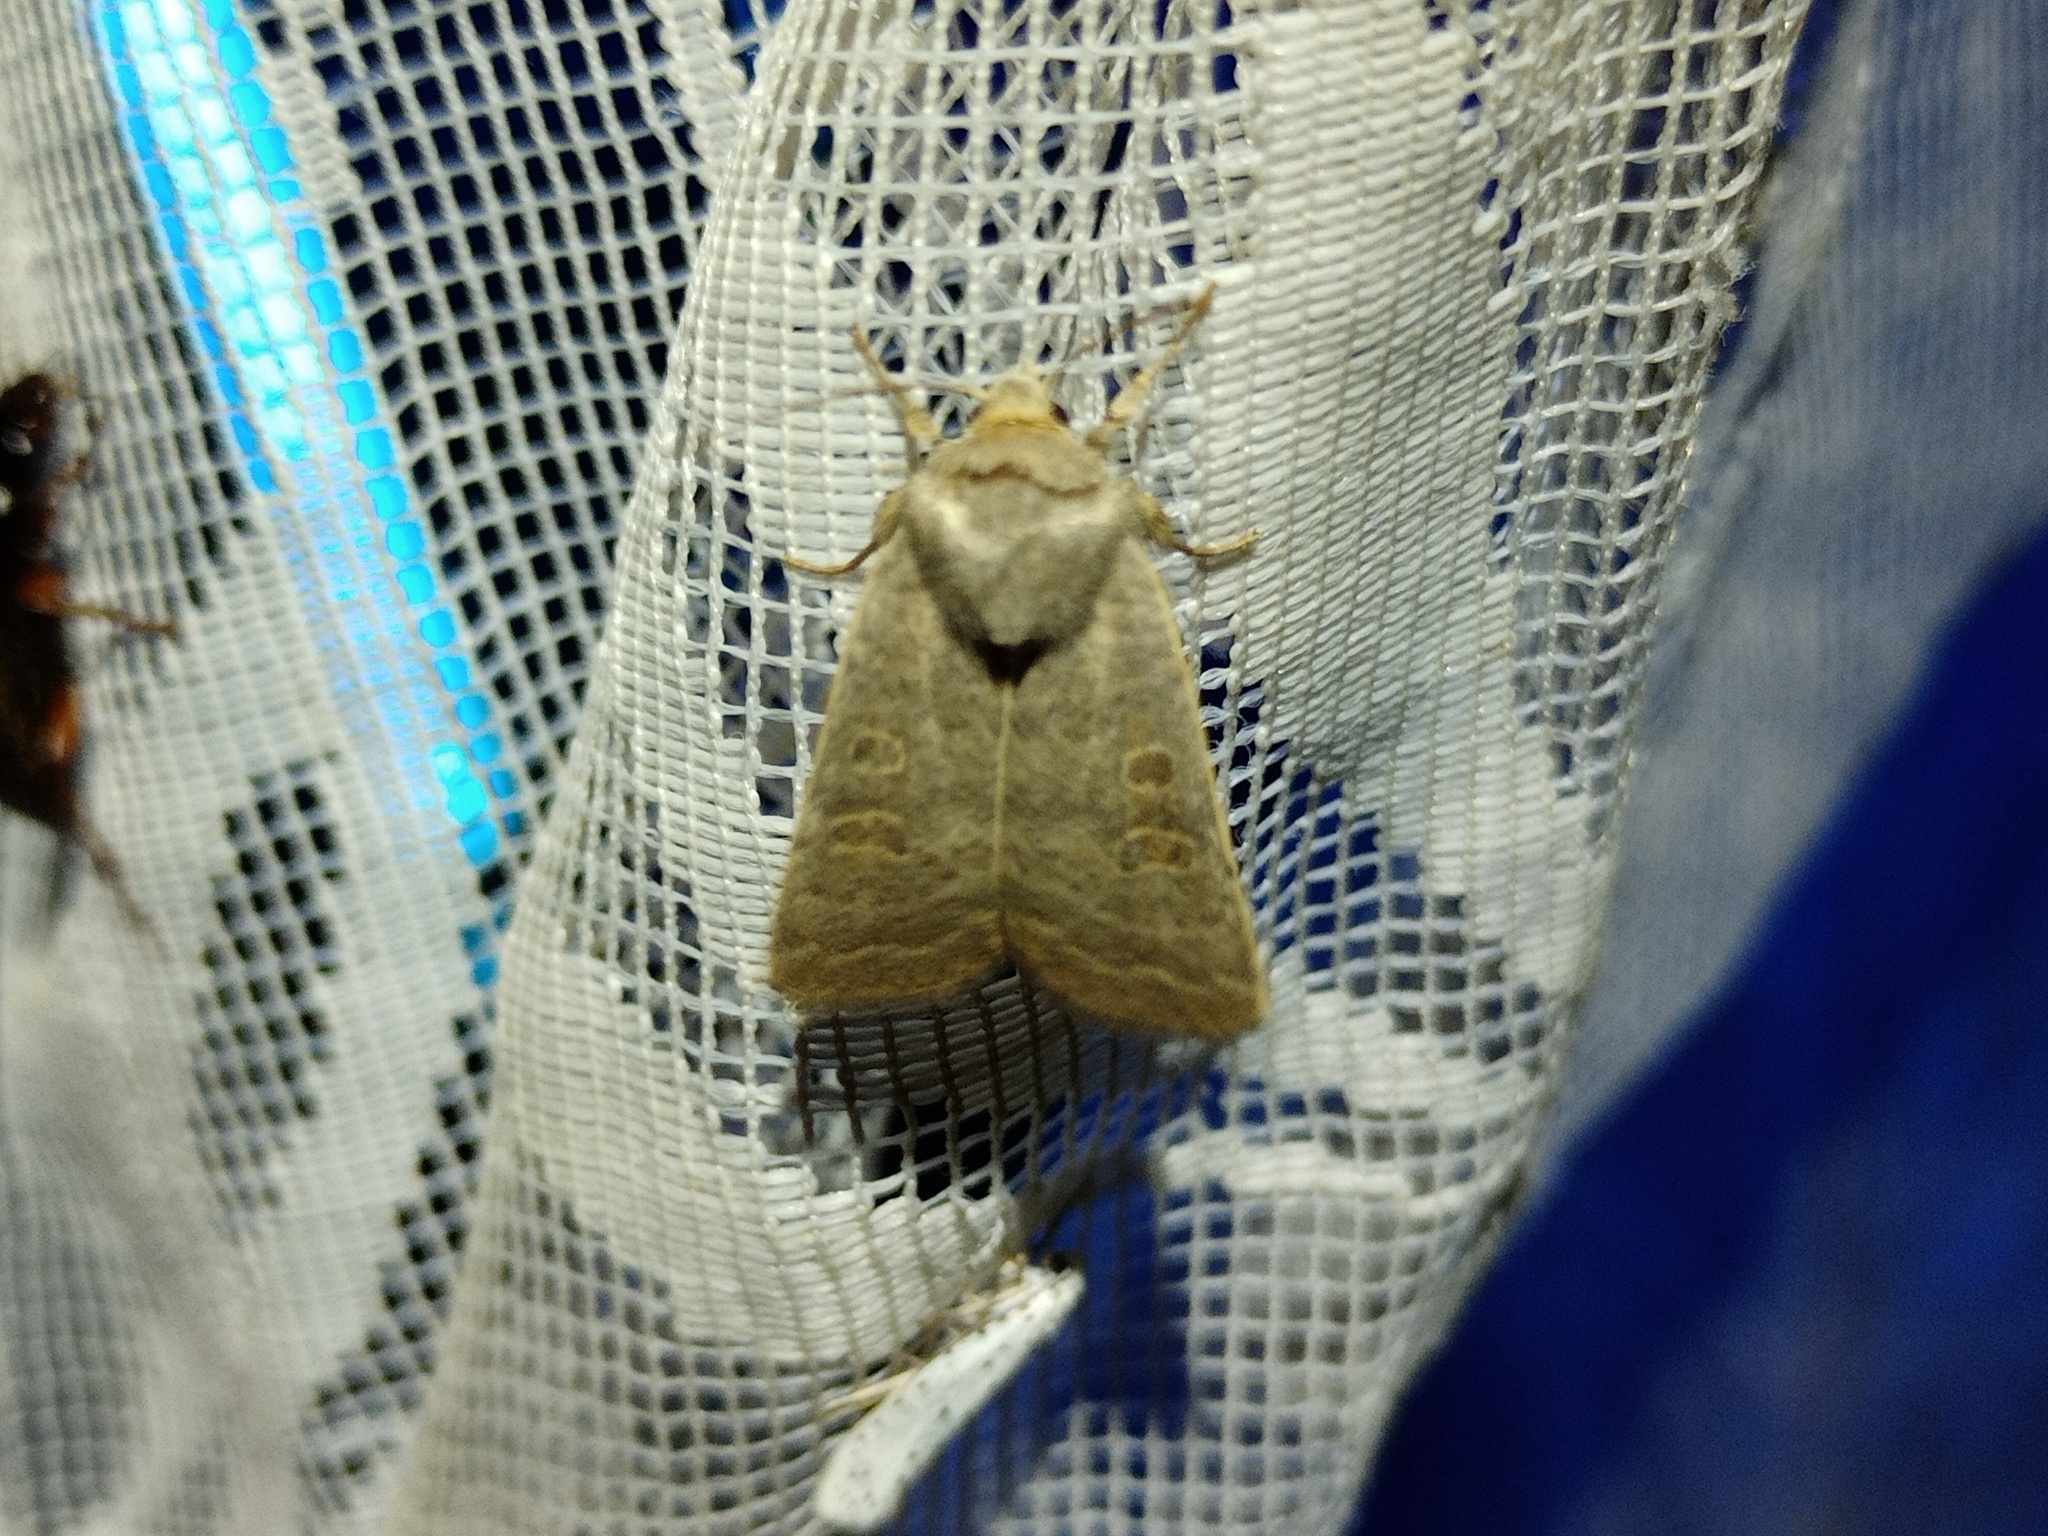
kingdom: Animalia
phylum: Arthropoda
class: Insecta
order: Lepidoptera
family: Noctuidae
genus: Hoplodrina
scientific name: Hoplodrina ambigua
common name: Vine's rustic
